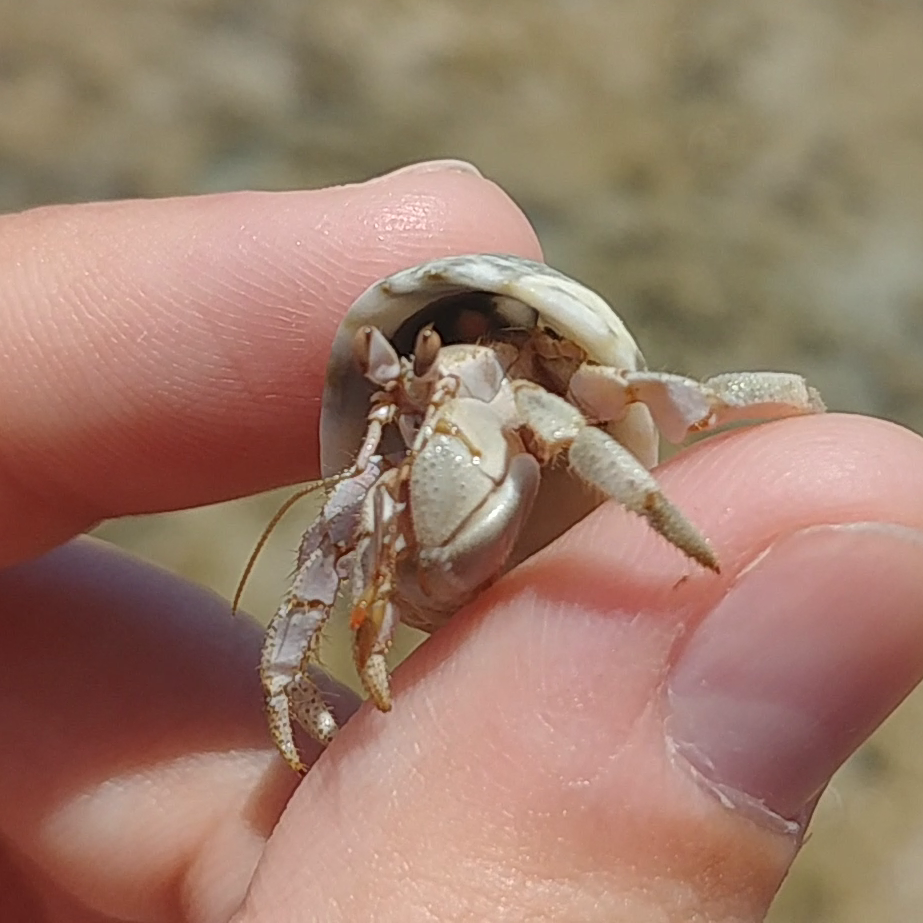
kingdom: Animalia
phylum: Arthropoda
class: Malacostraca
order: Decapoda
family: Coenobitidae
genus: Coenobita
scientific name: Coenobita scaevola
